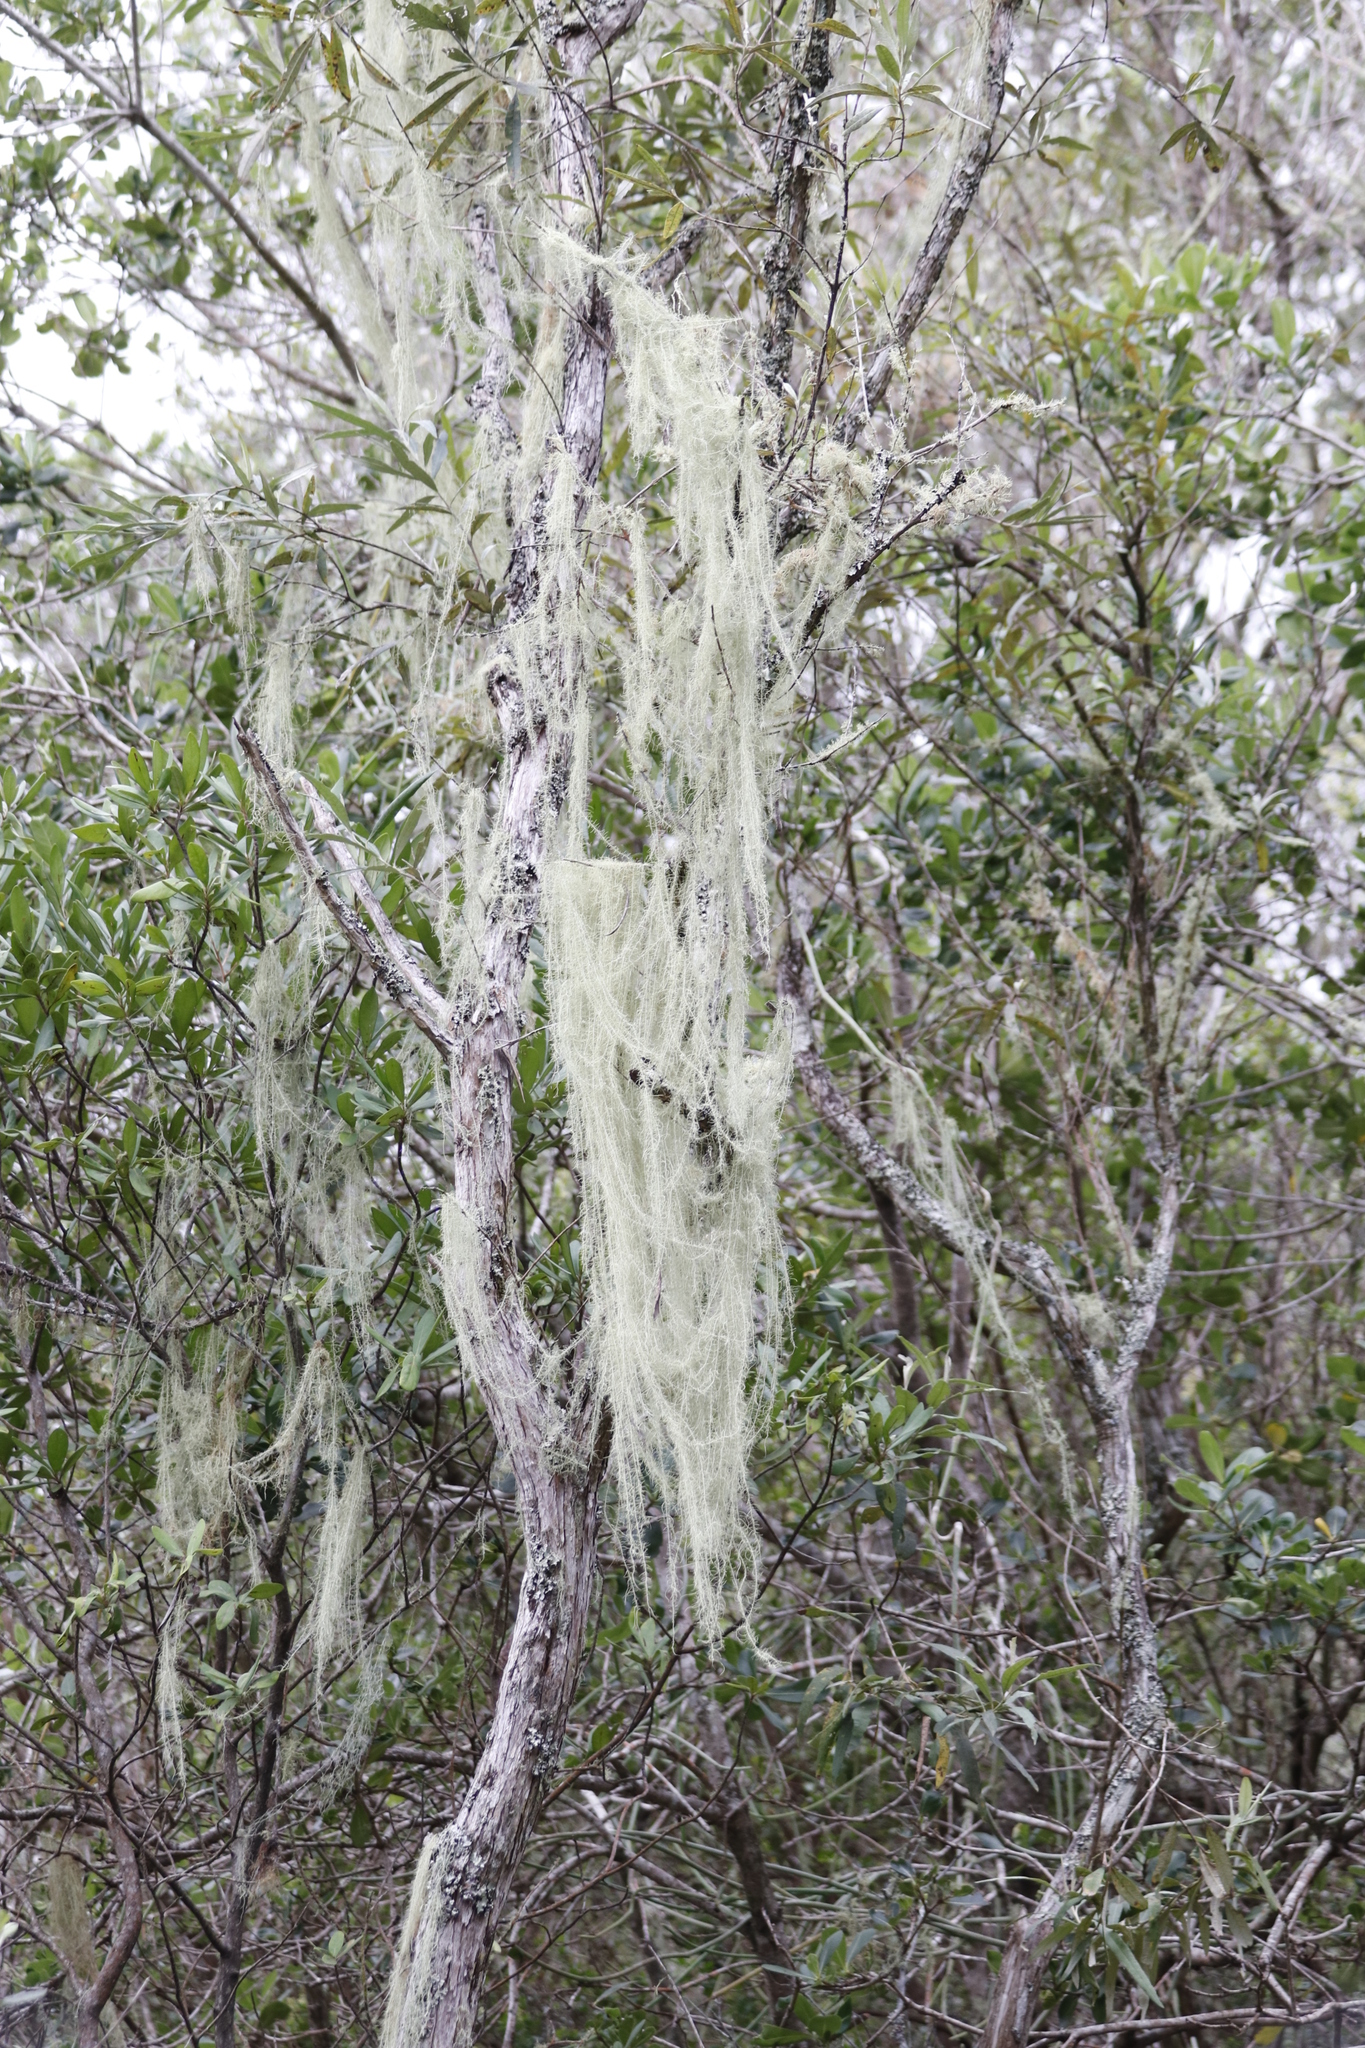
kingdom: Fungi
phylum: Ascomycota
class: Lecanoromycetes
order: Lecanorales
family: Parmeliaceae
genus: Dolichousnea
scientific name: Dolichousnea trichodeoides
